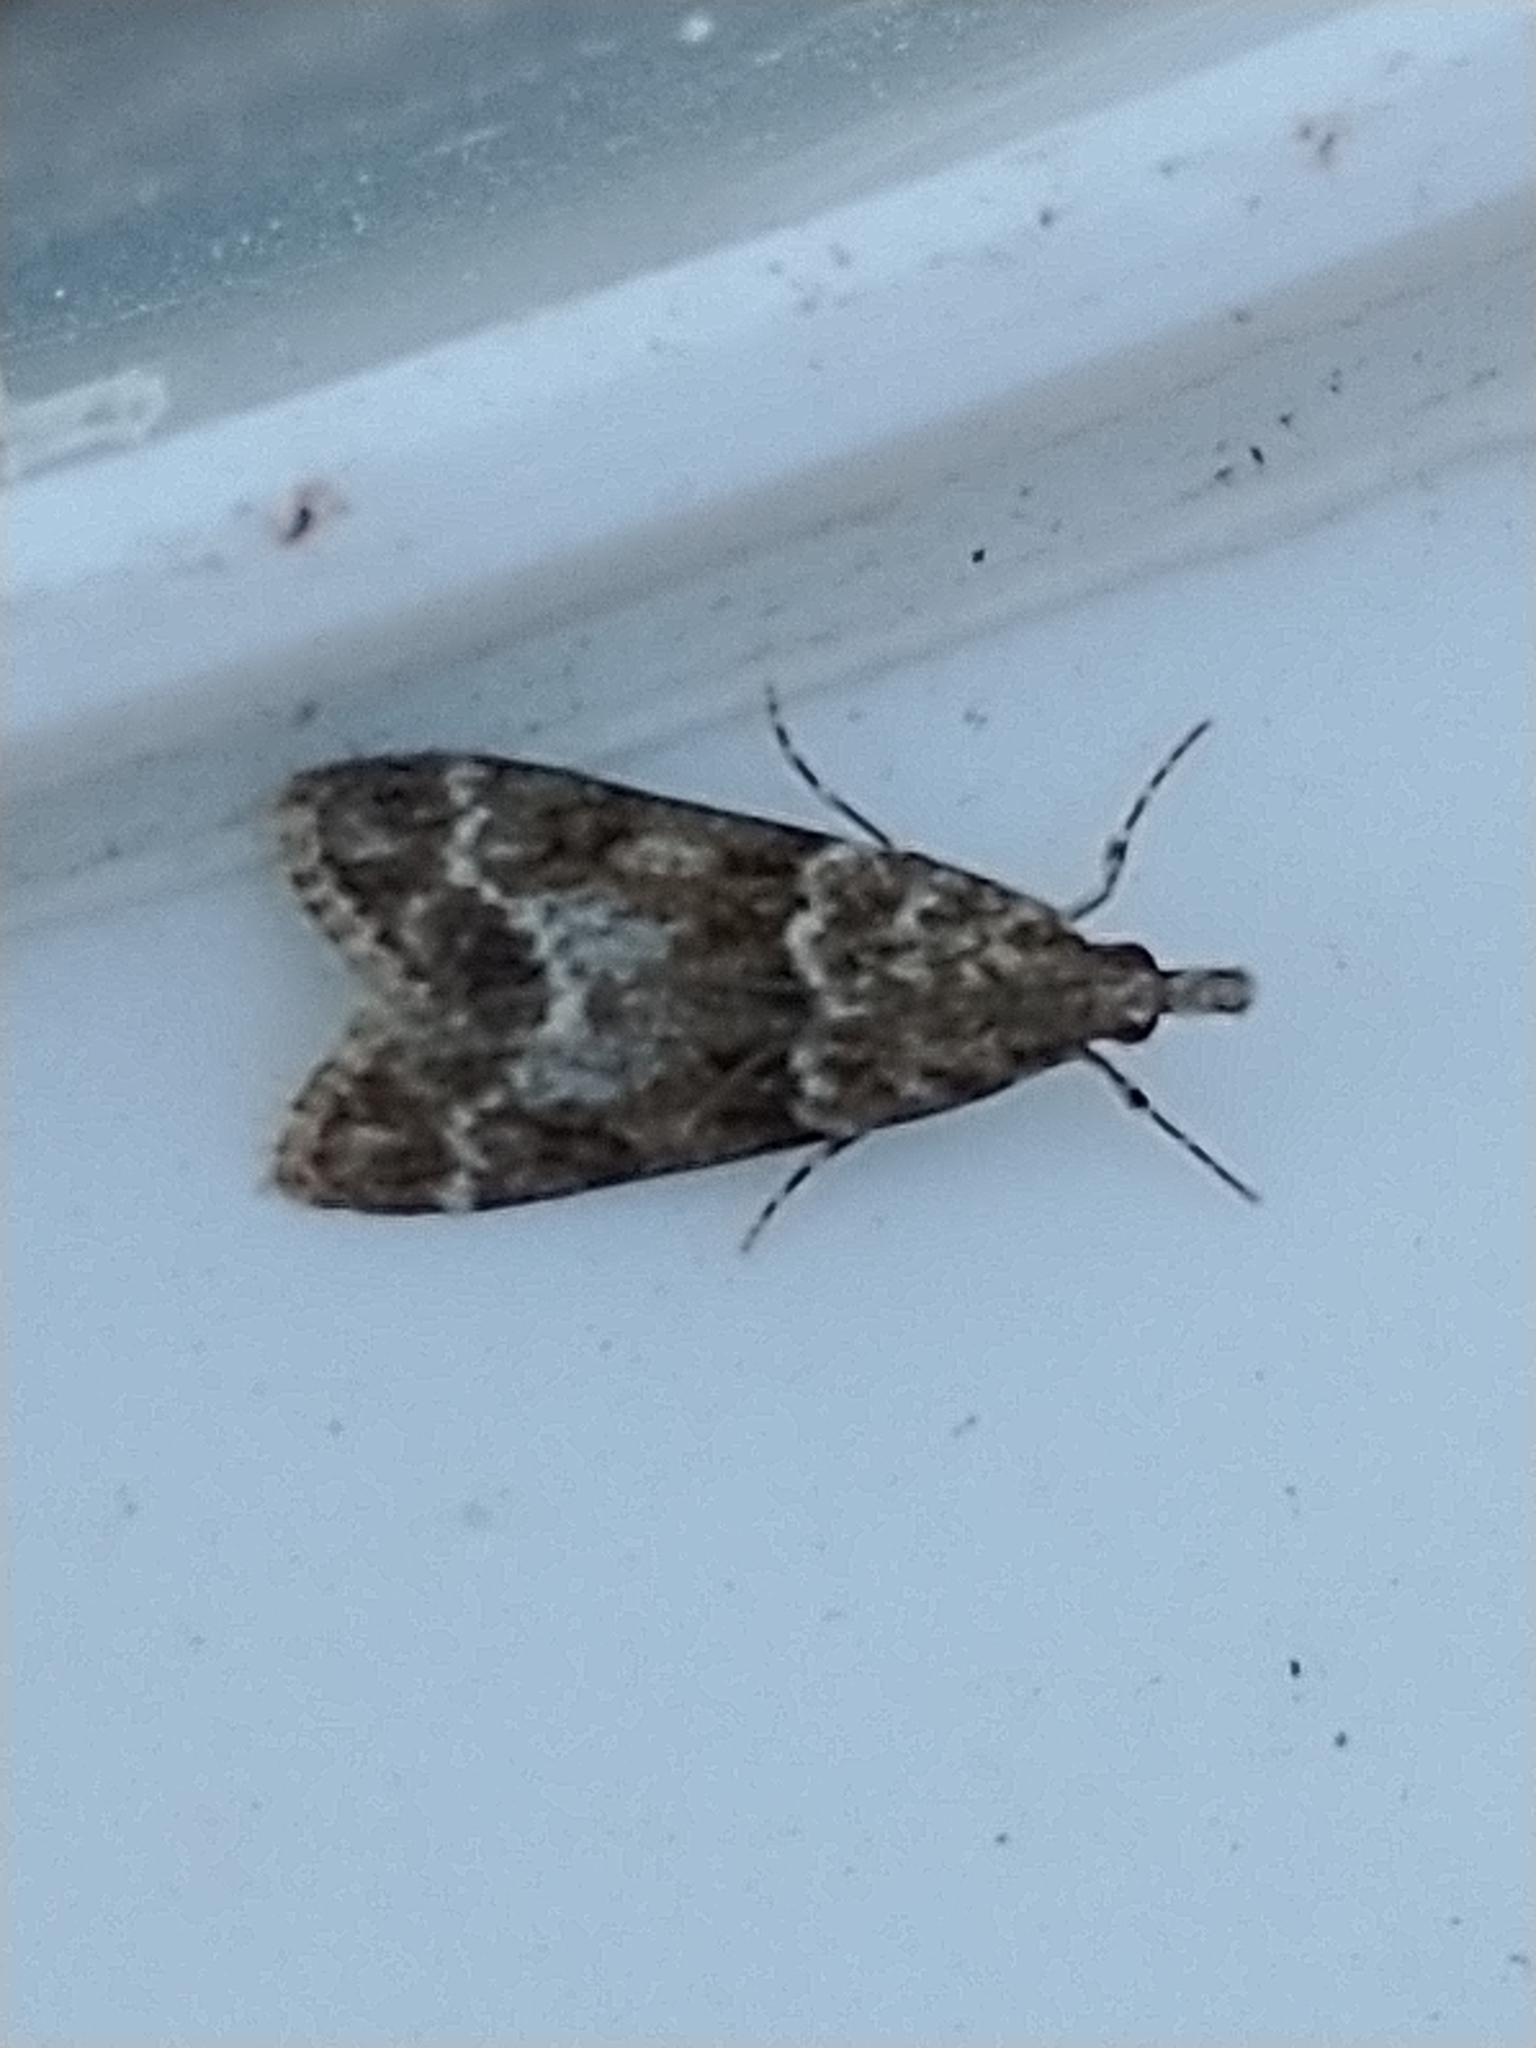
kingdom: Animalia
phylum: Arthropoda
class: Insecta
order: Lepidoptera
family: Crambidae
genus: Eudonia
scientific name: Eudonia mercurella
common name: Small grey
